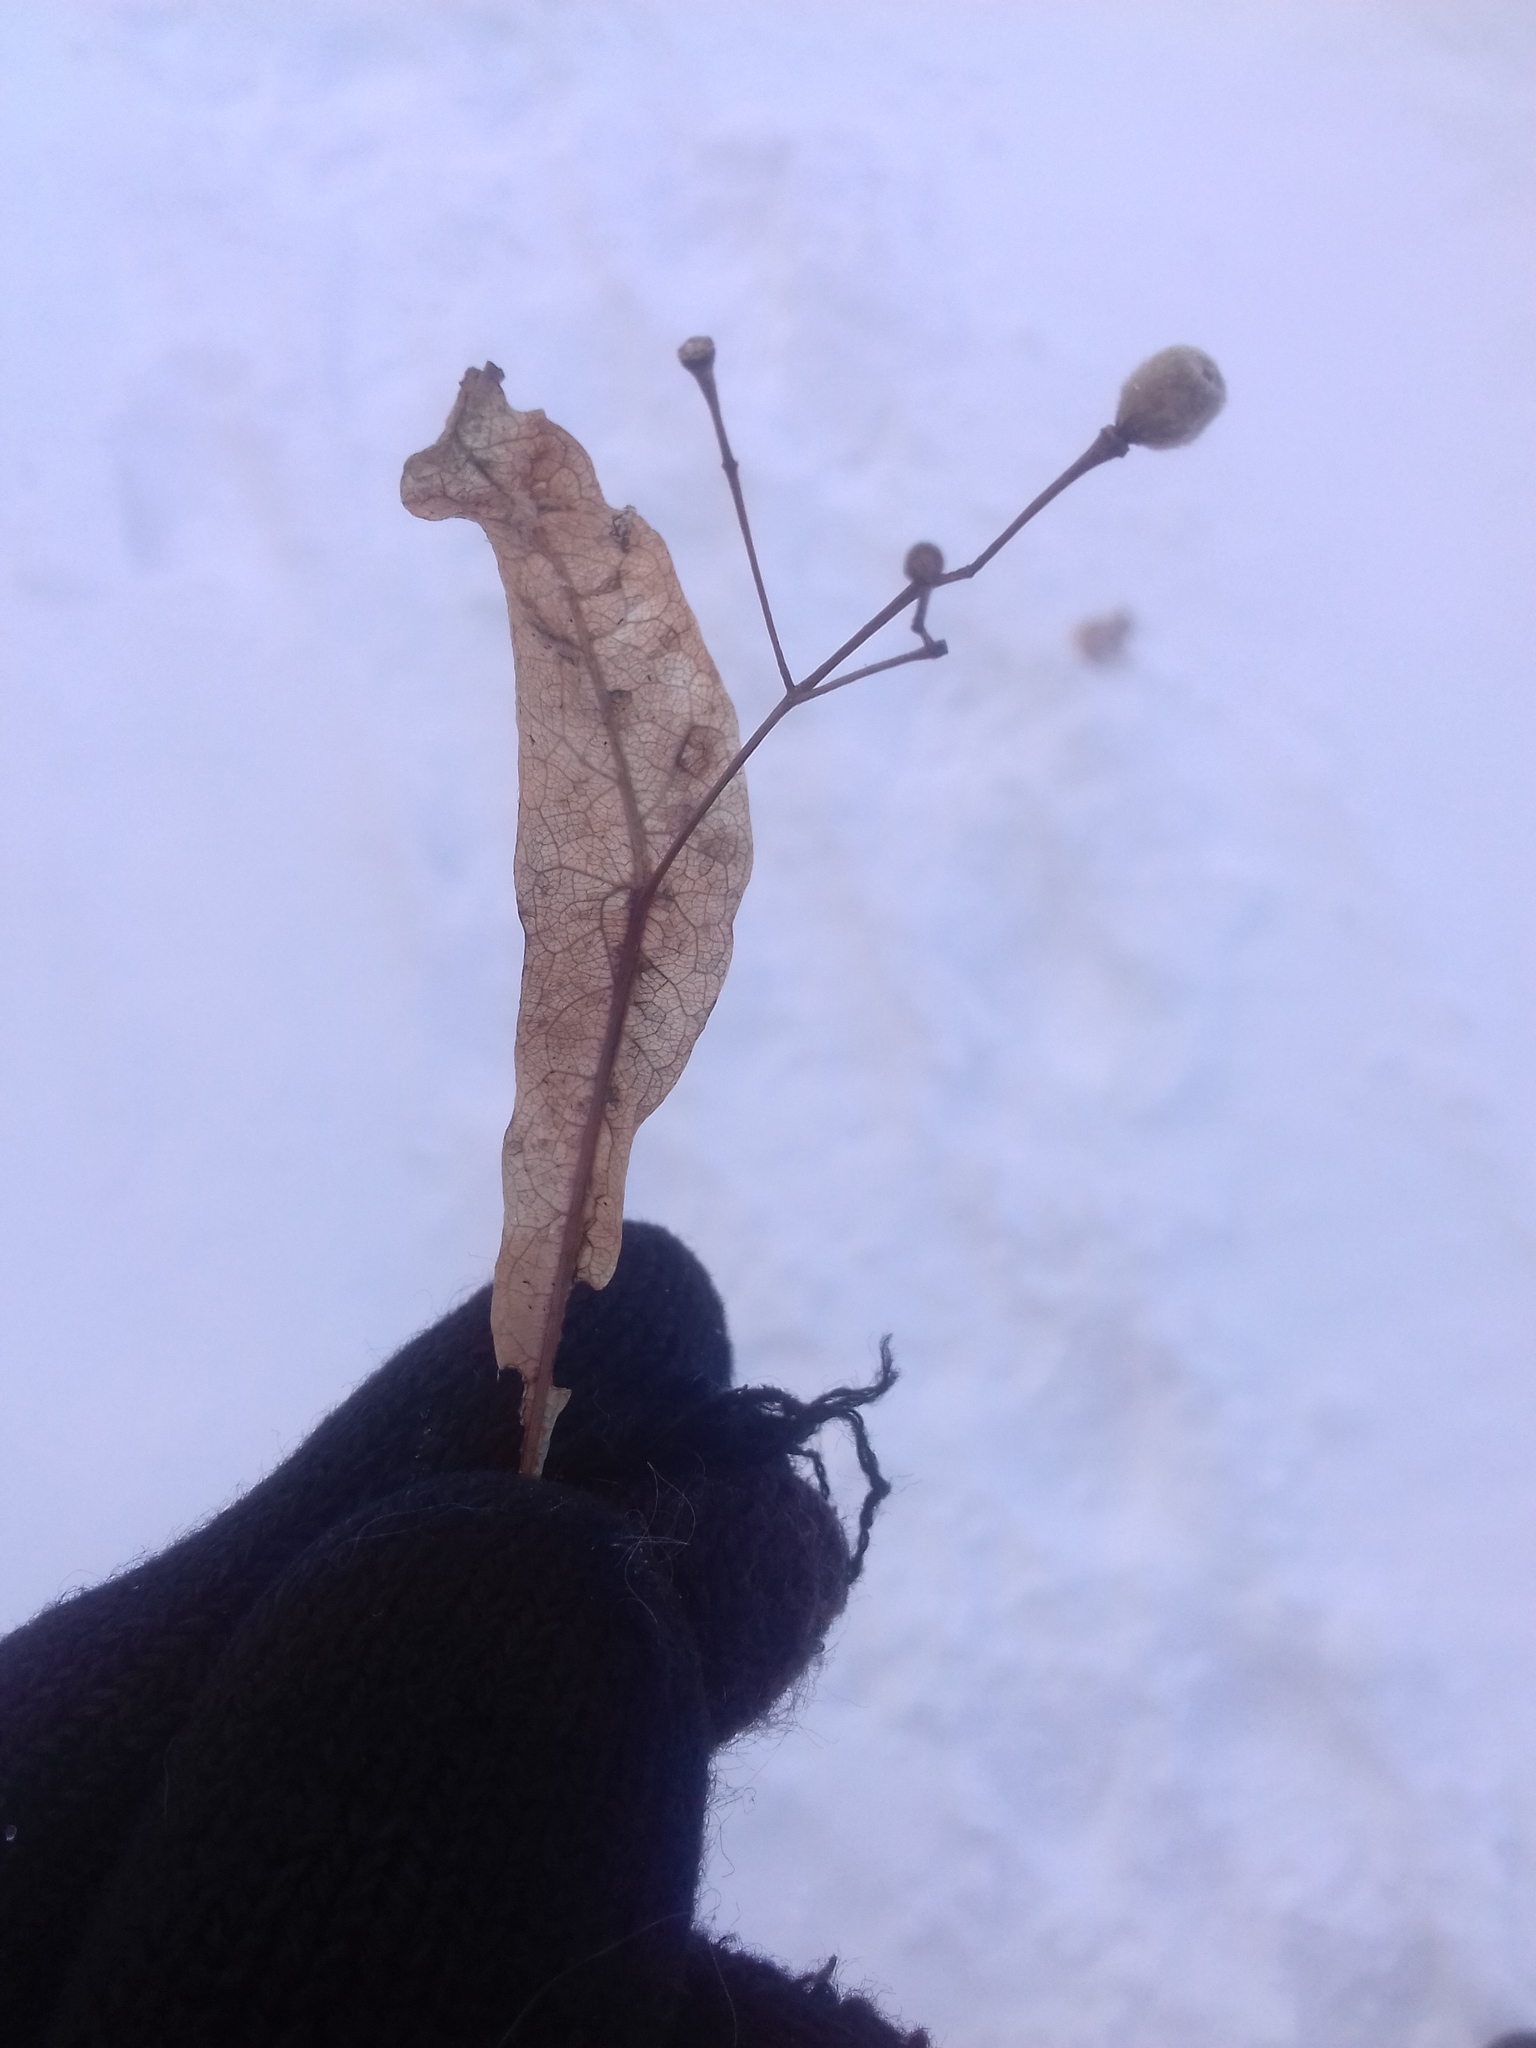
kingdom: Plantae
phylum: Tracheophyta
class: Magnoliopsida
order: Malvales
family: Malvaceae
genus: Tilia
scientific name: Tilia cordata
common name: Small-leaved lime
